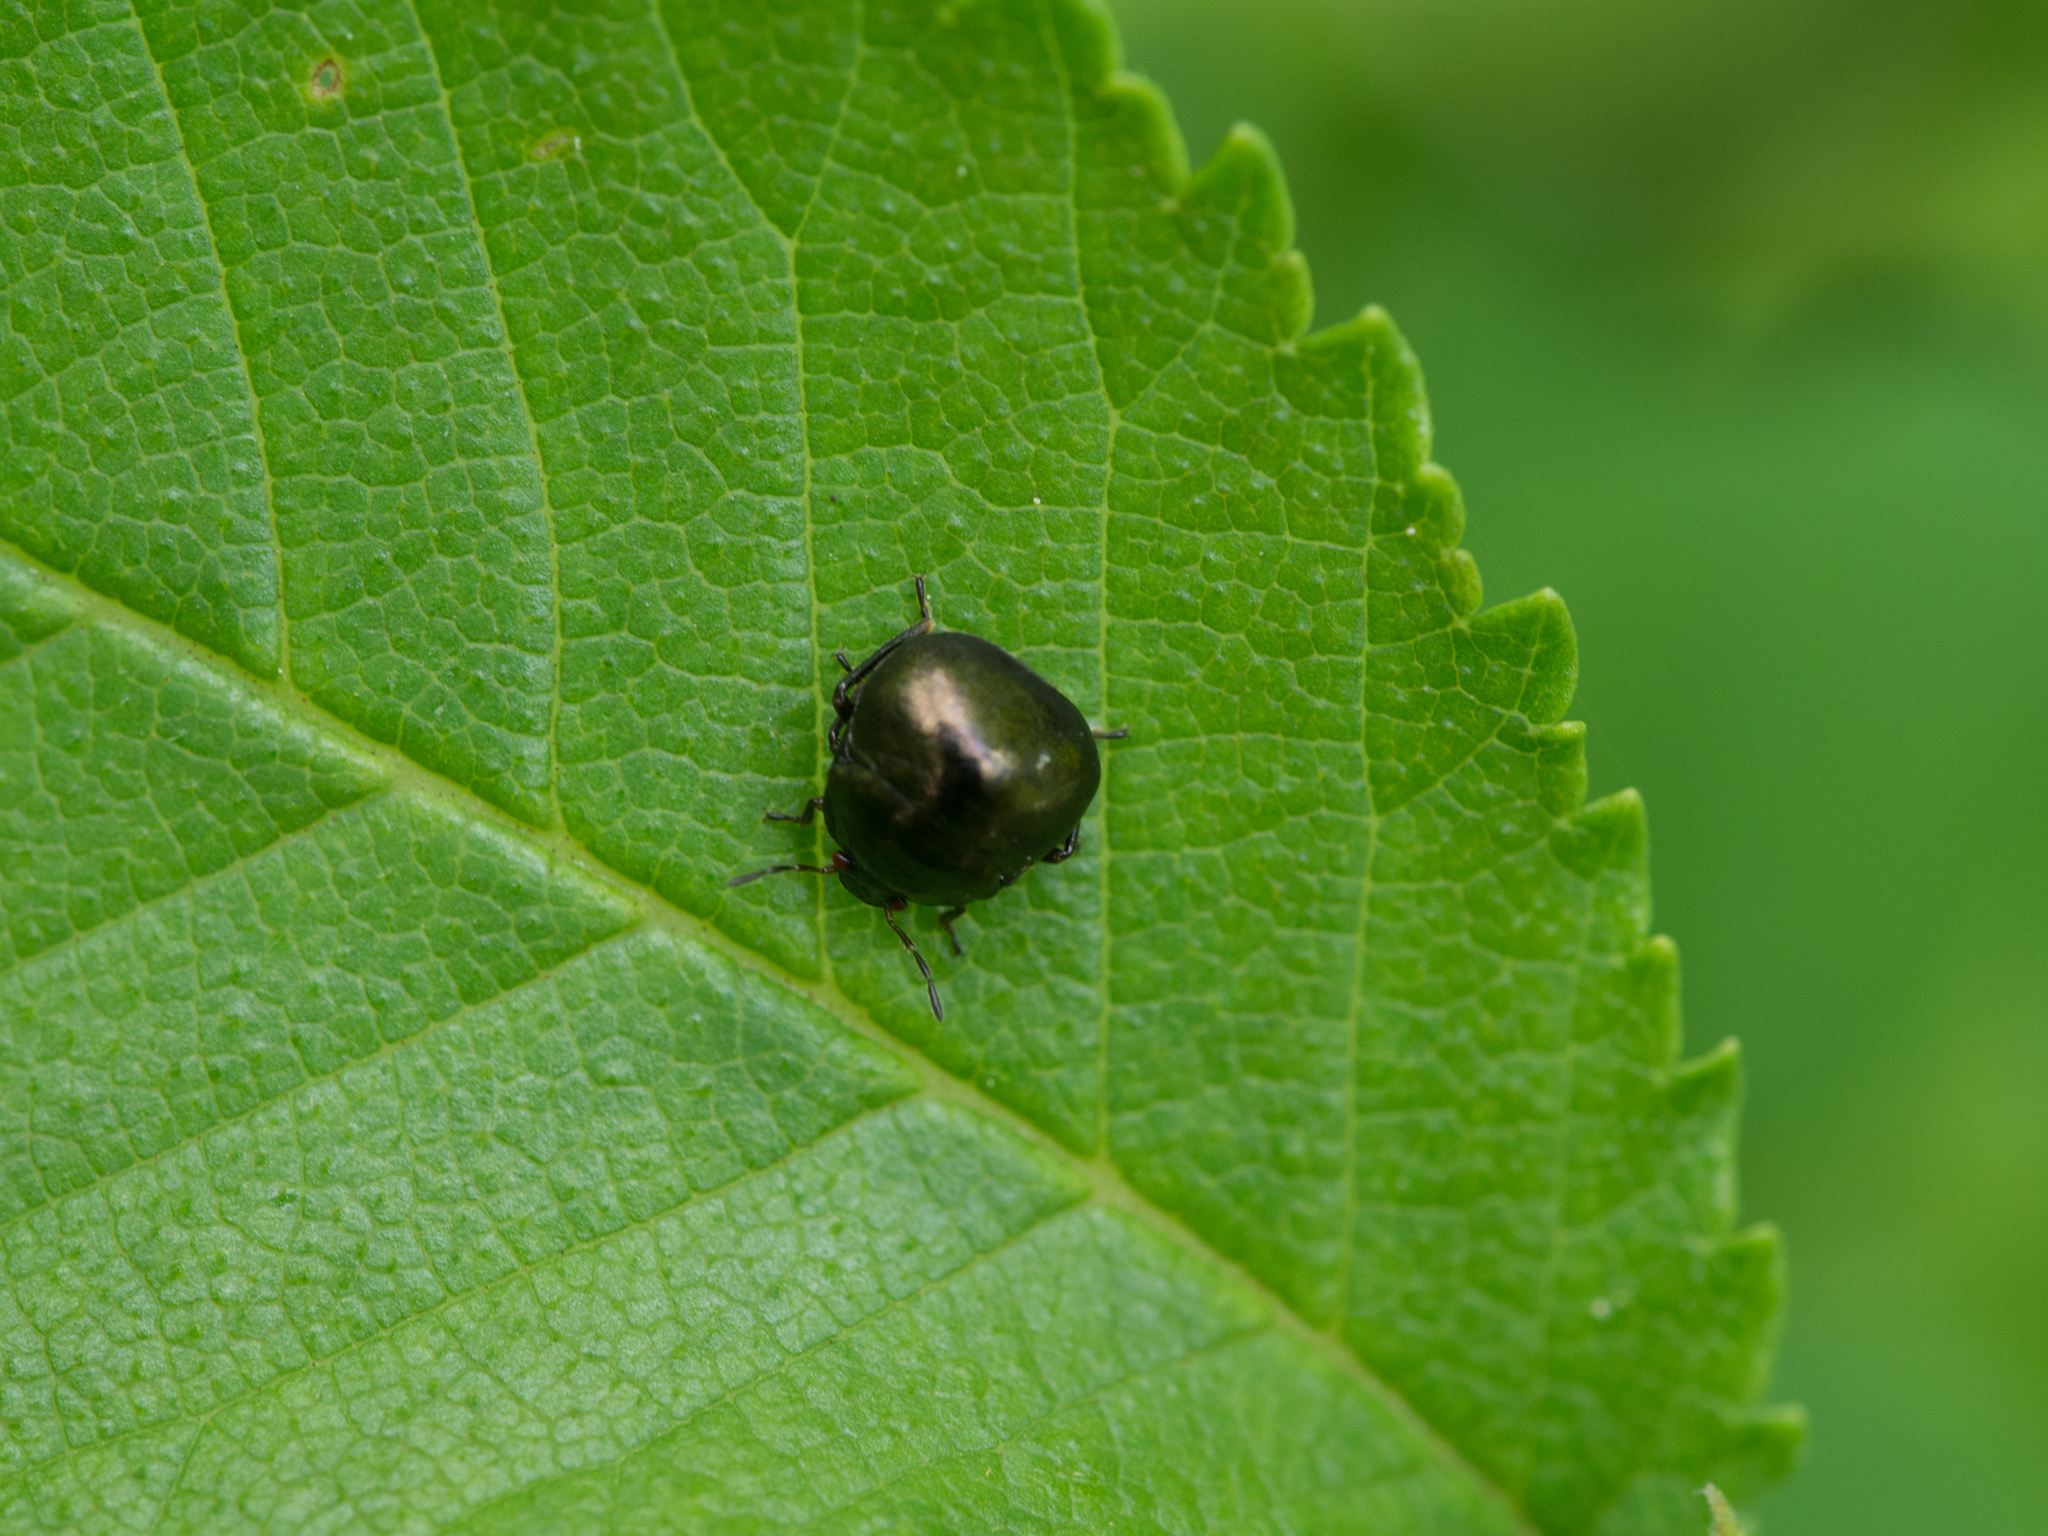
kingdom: Animalia
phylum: Arthropoda
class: Insecta
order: Hemiptera
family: Plataspidae
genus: Coptosoma
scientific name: Coptosoma scutellatum
